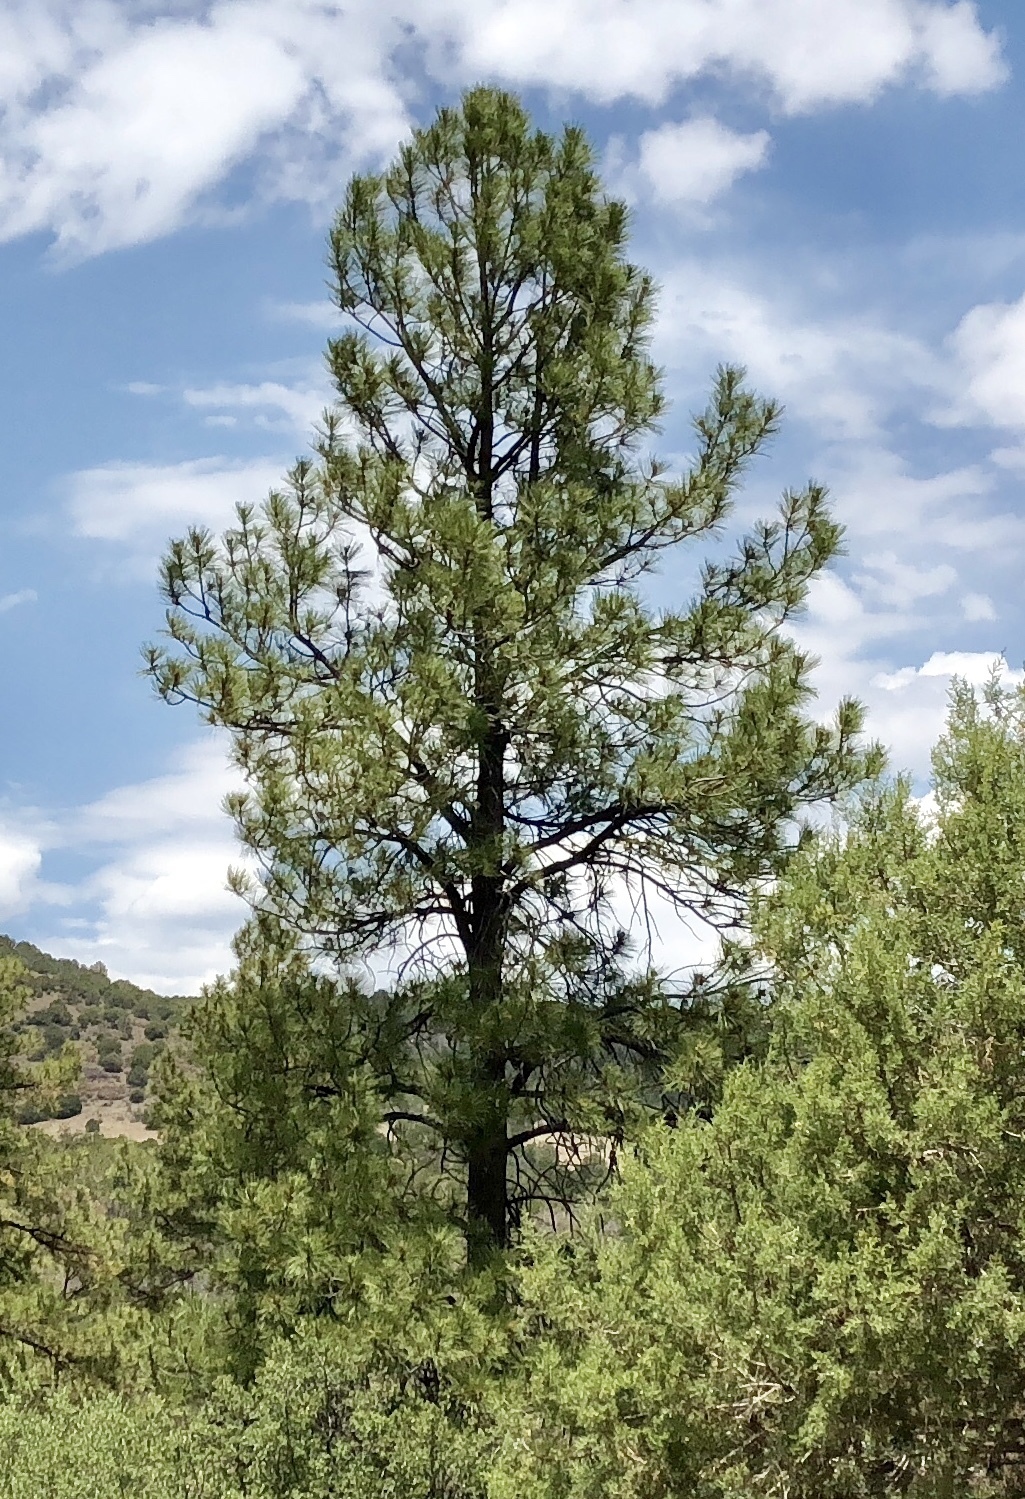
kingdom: Plantae
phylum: Tracheophyta
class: Pinopsida
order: Pinales
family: Pinaceae
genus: Pinus
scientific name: Pinus ponderosa
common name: Western yellow-pine
